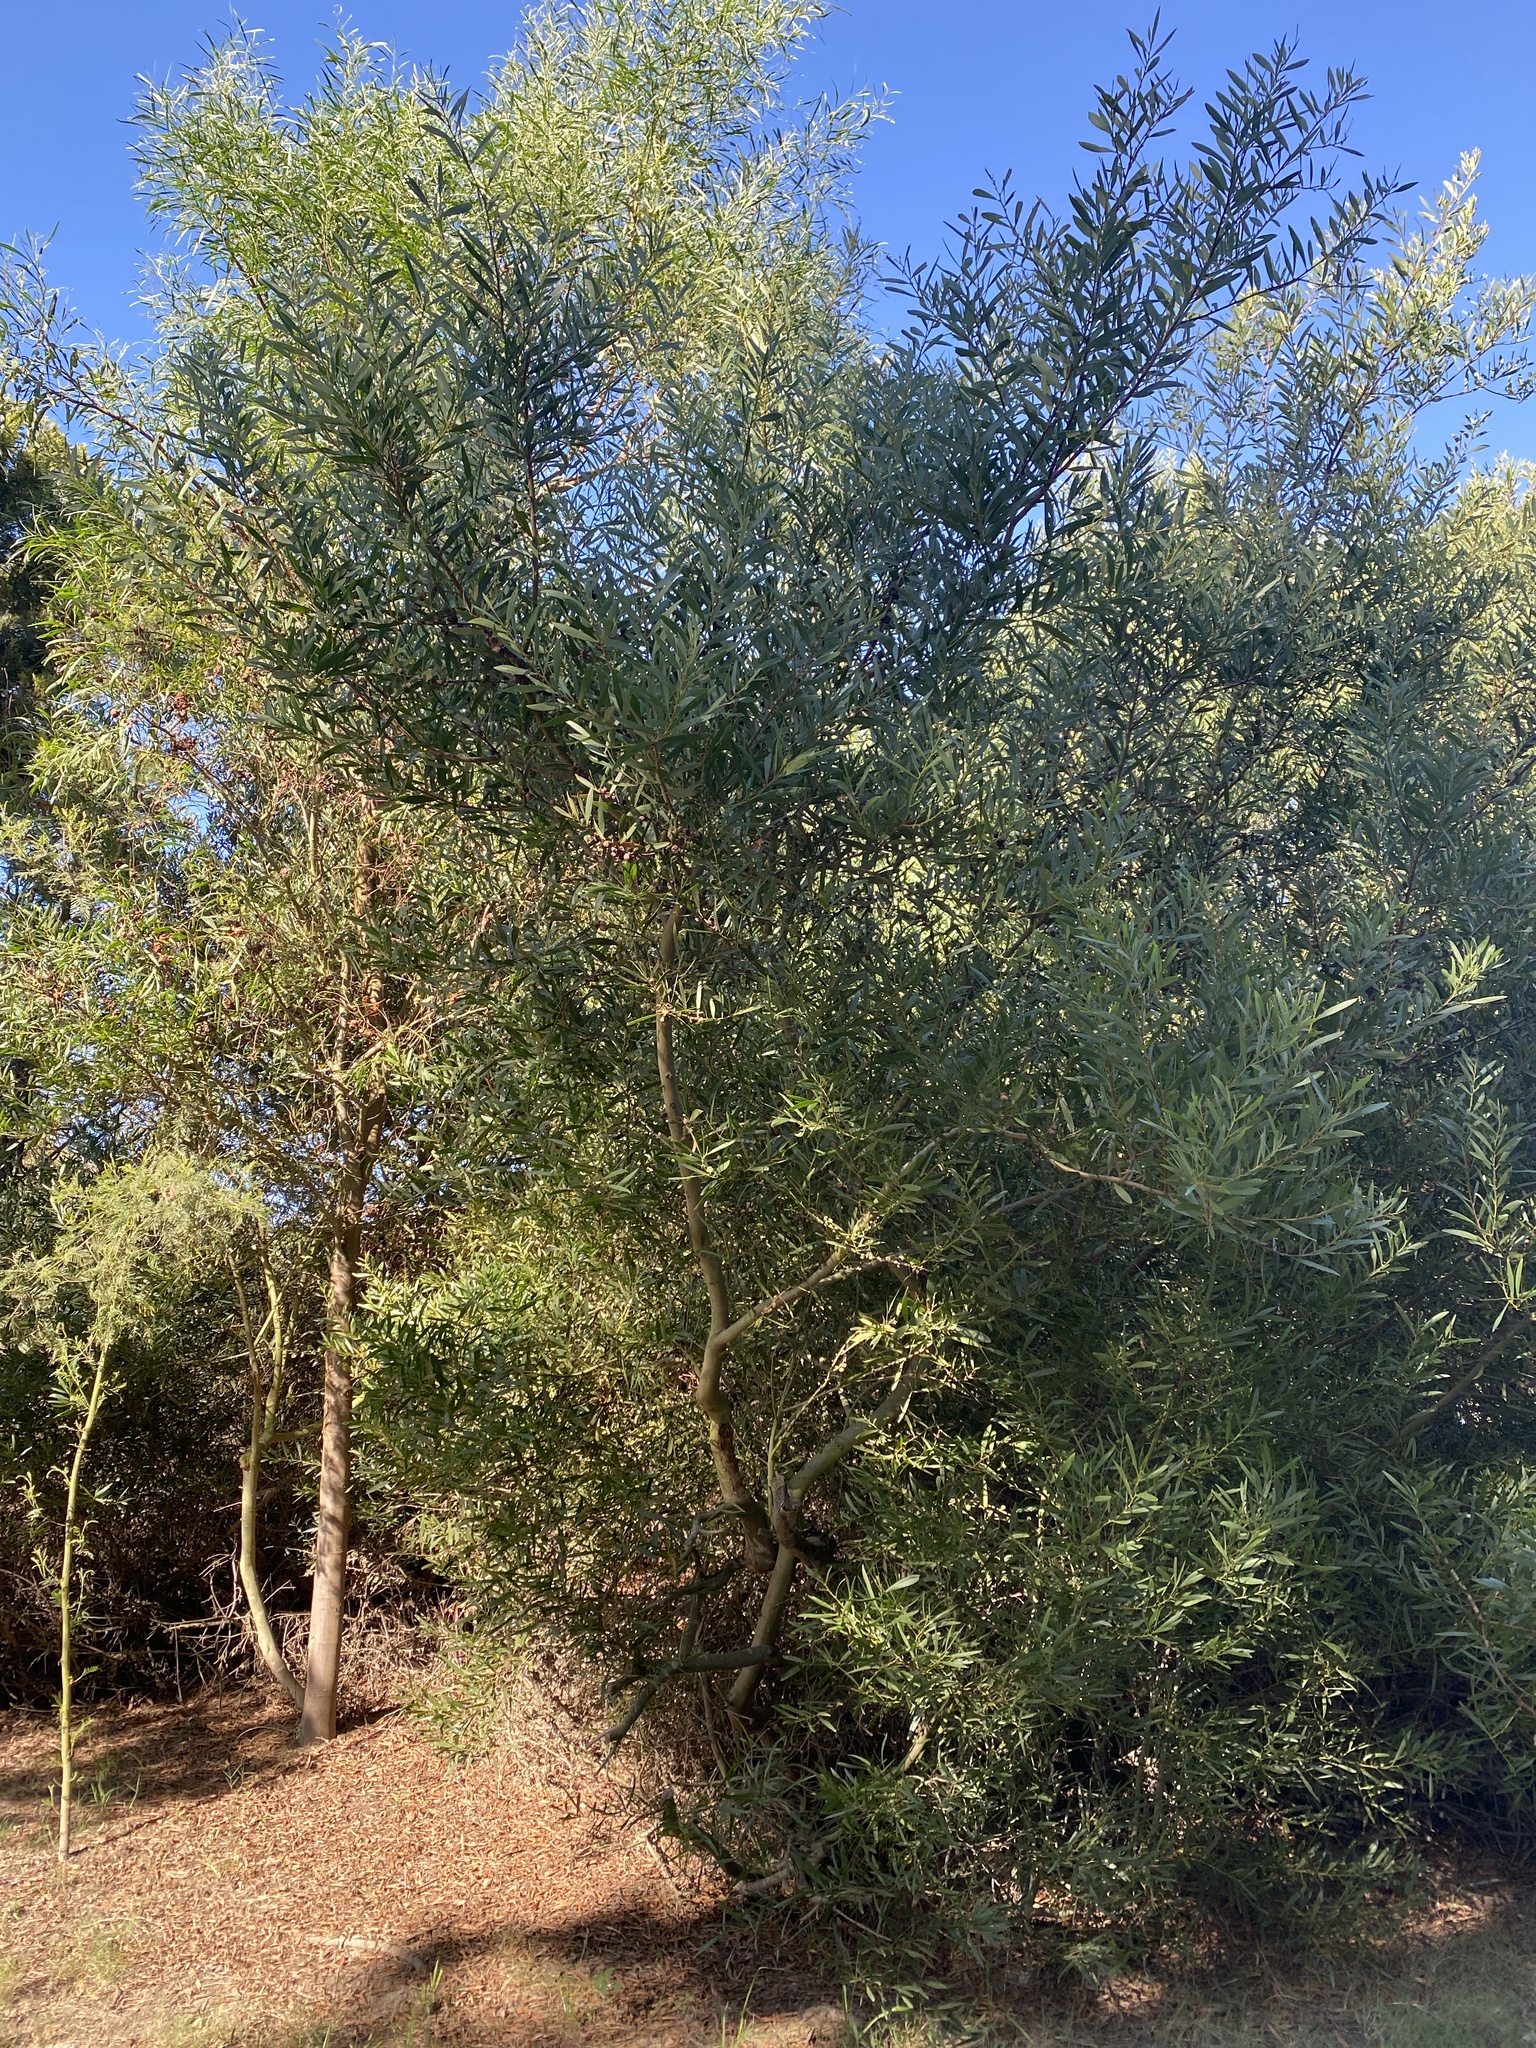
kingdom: Plantae
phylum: Tracheophyta
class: Magnoliopsida
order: Fabales
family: Fabaceae
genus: Acacia
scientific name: Acacia longifolia
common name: Sydney golden wattle
